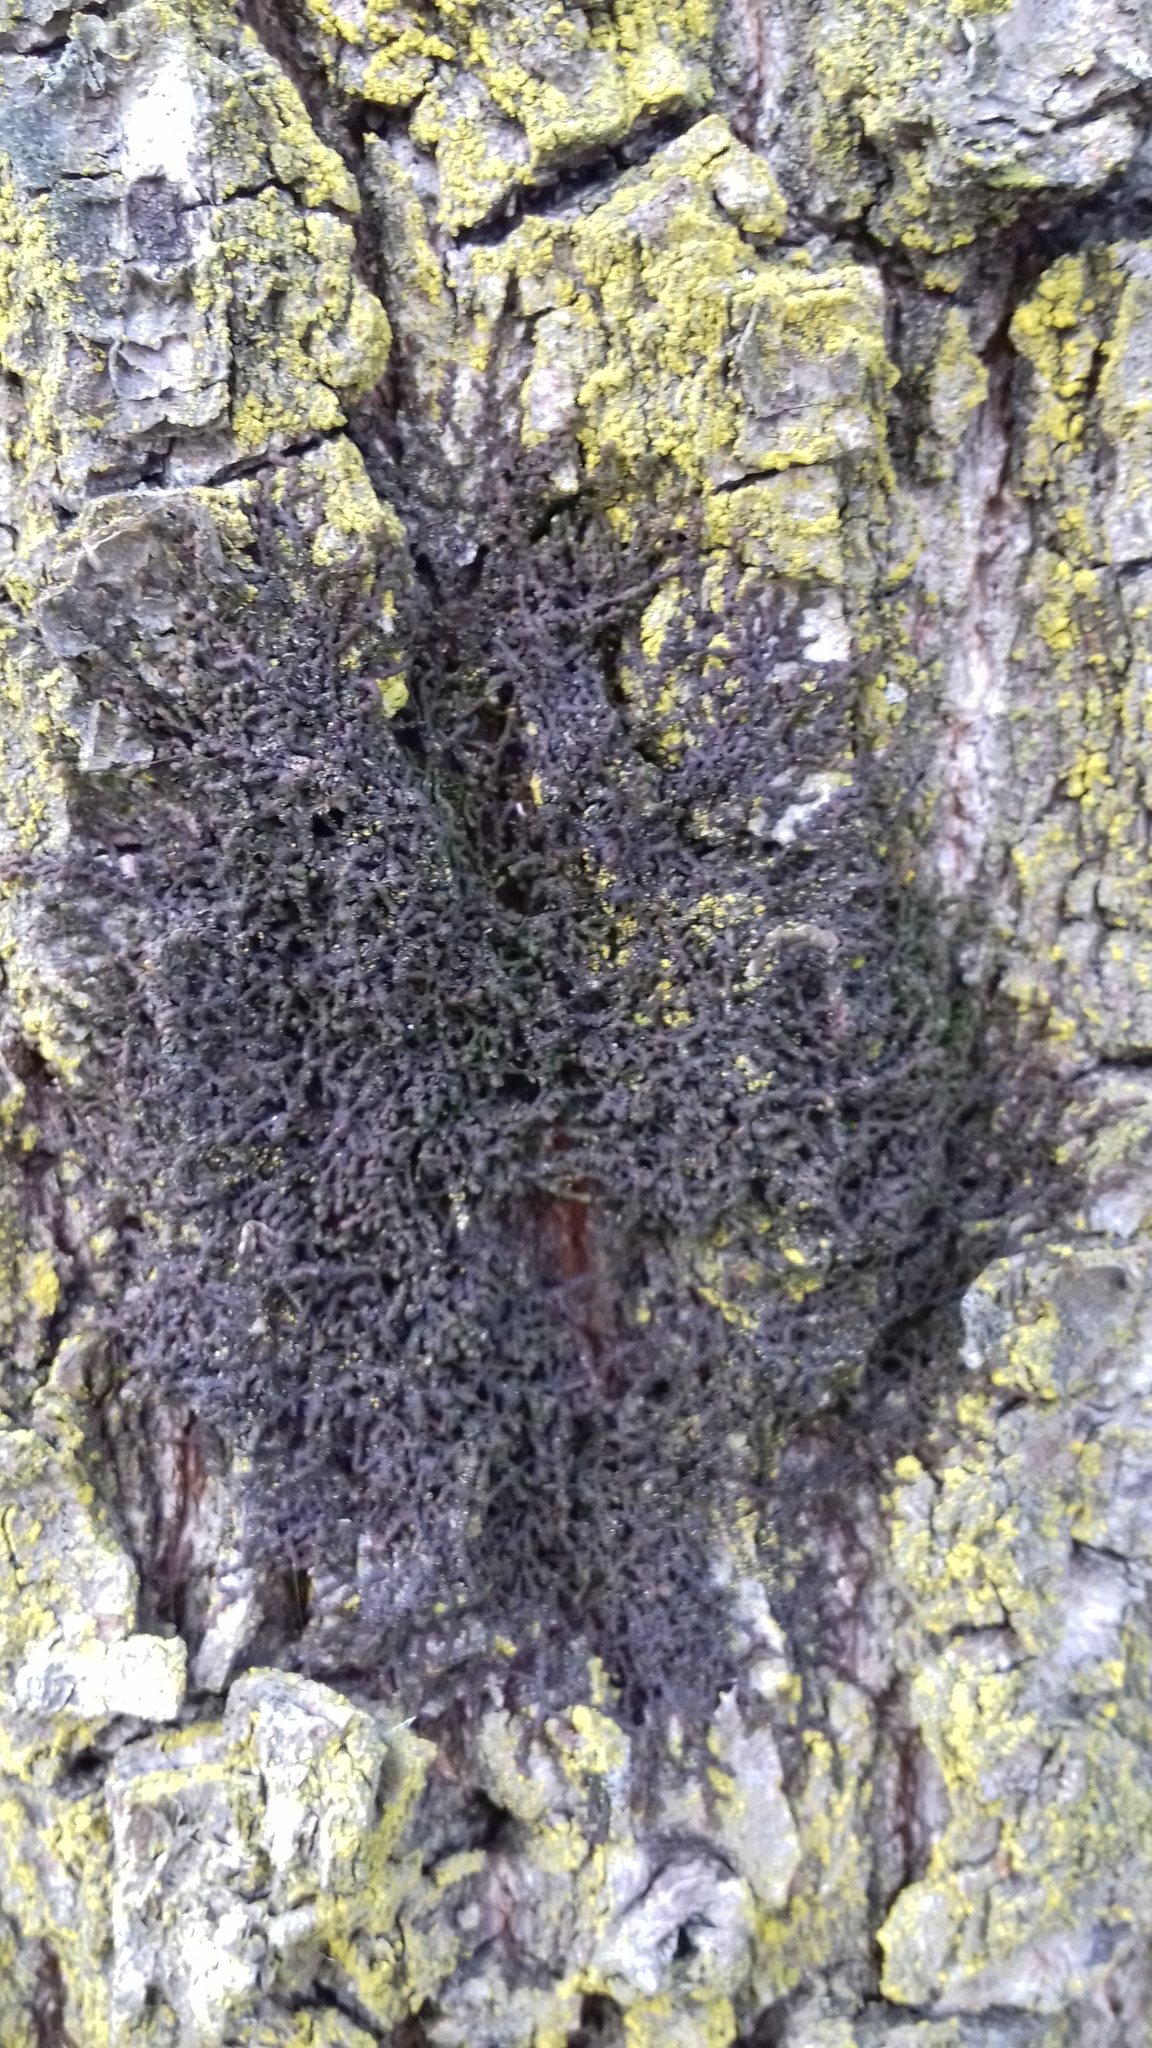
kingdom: Plantae
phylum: Marchantiophyta
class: Jungermanniopsida
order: Porellales
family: Frullaniaceae
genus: Frullania
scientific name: Frullania dilatata
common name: Dilated scalewort
